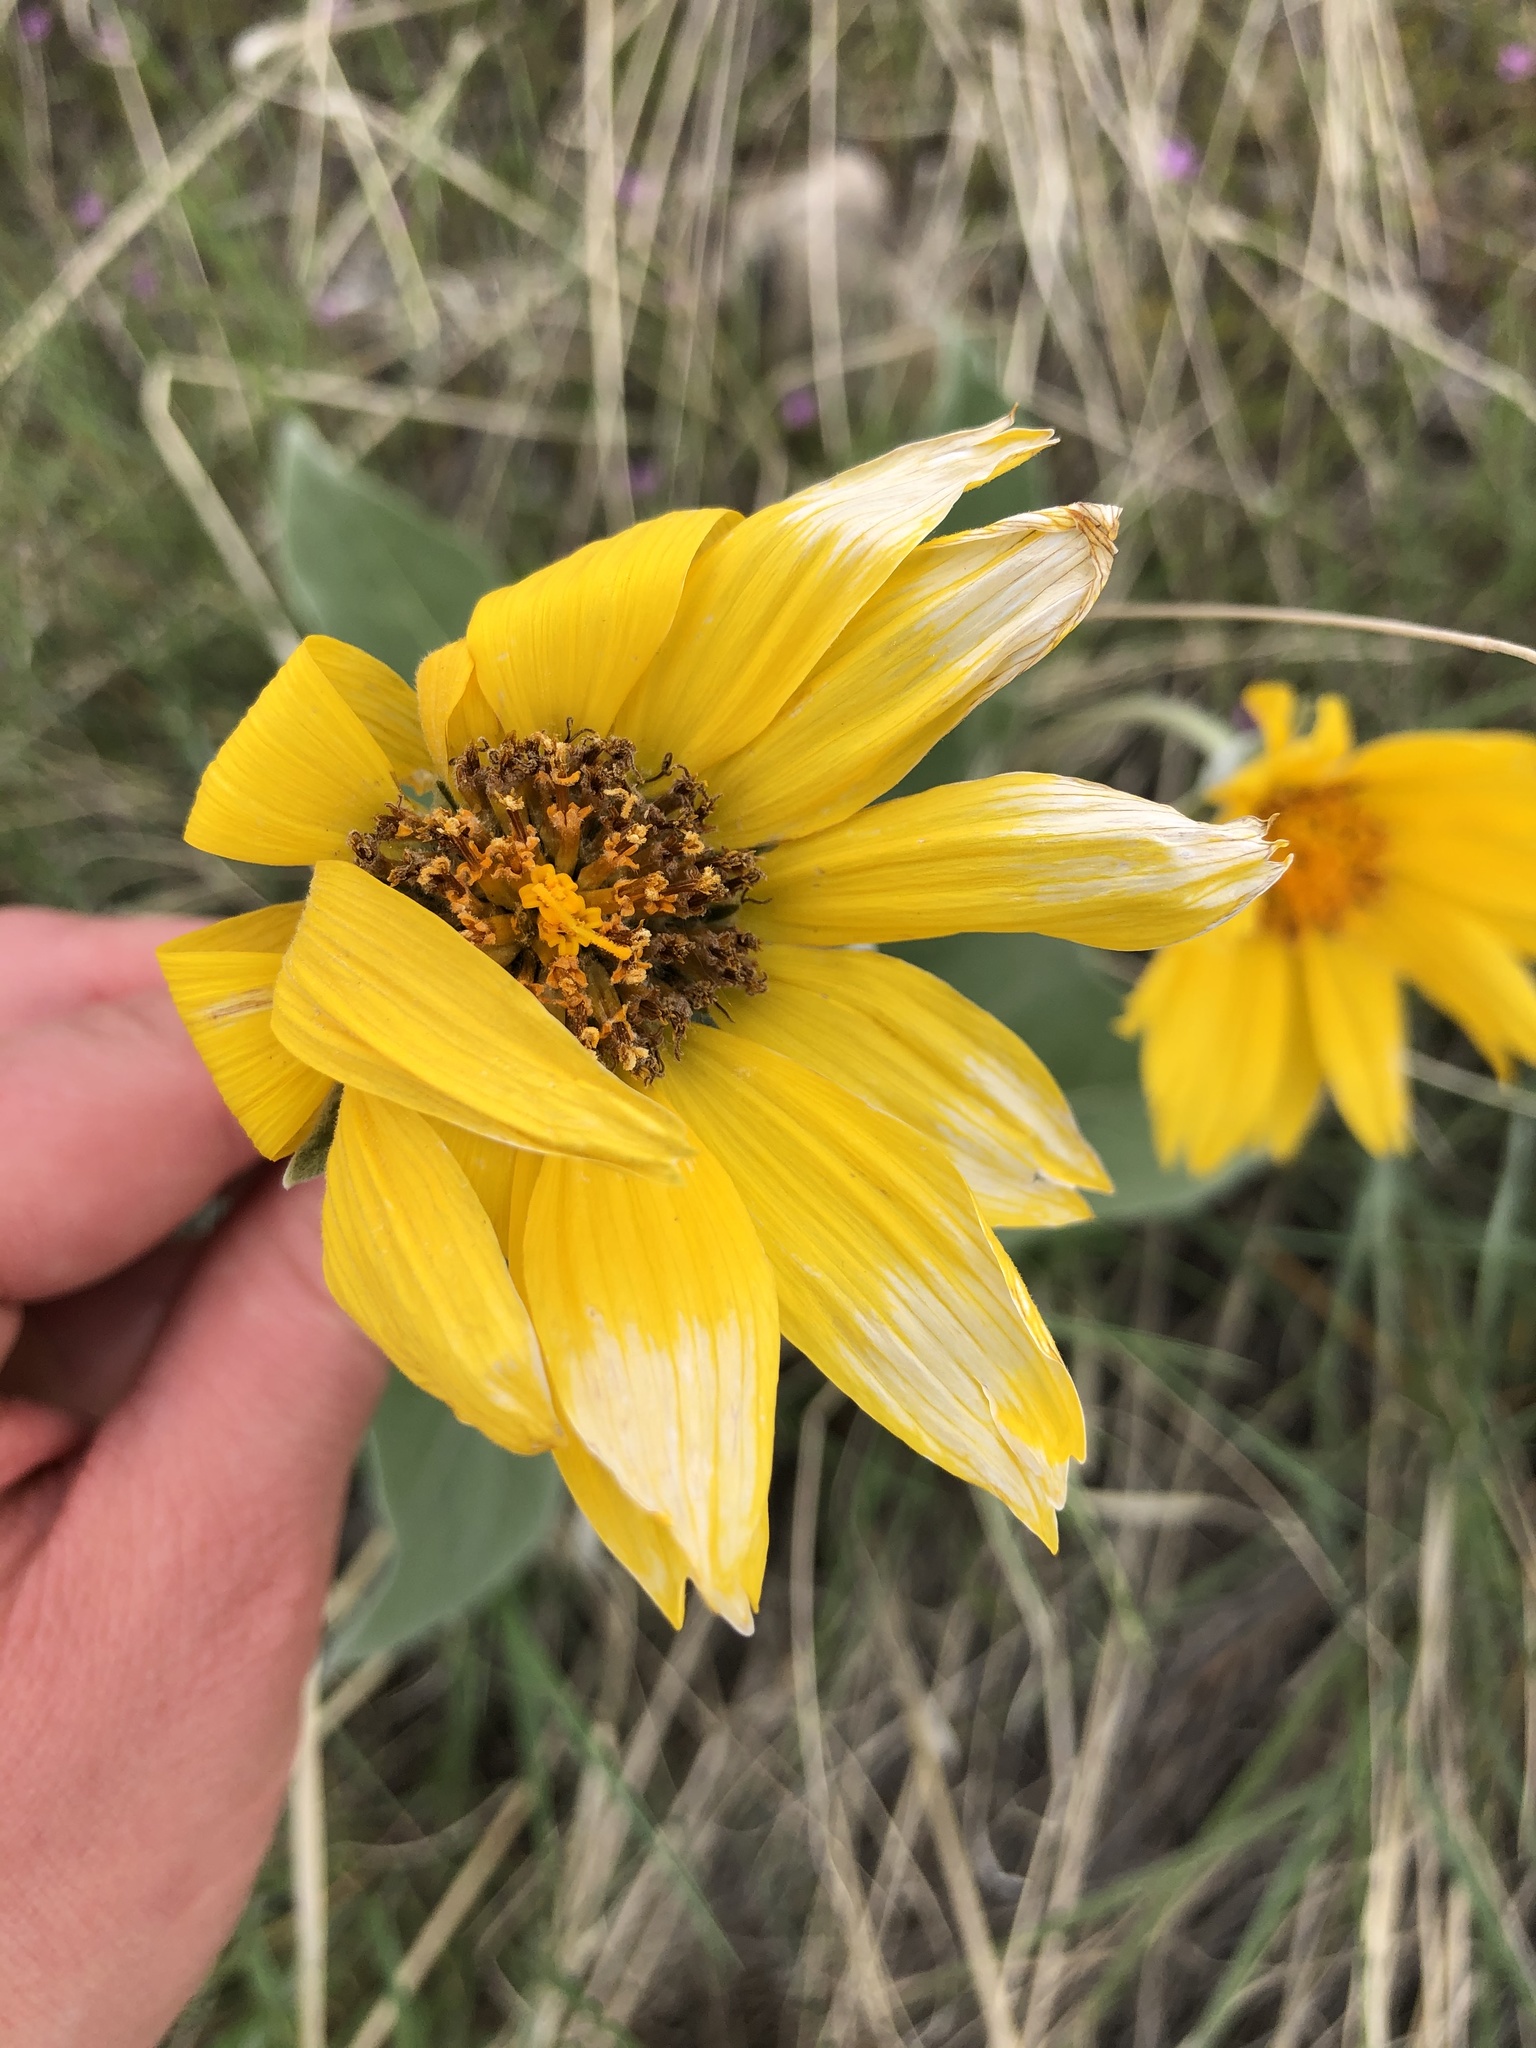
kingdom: Plantae
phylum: Tracheophyta
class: Magnoliopsida
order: Asterales
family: Asteraceae
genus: Wyethia
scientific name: Wyethia sagittata
